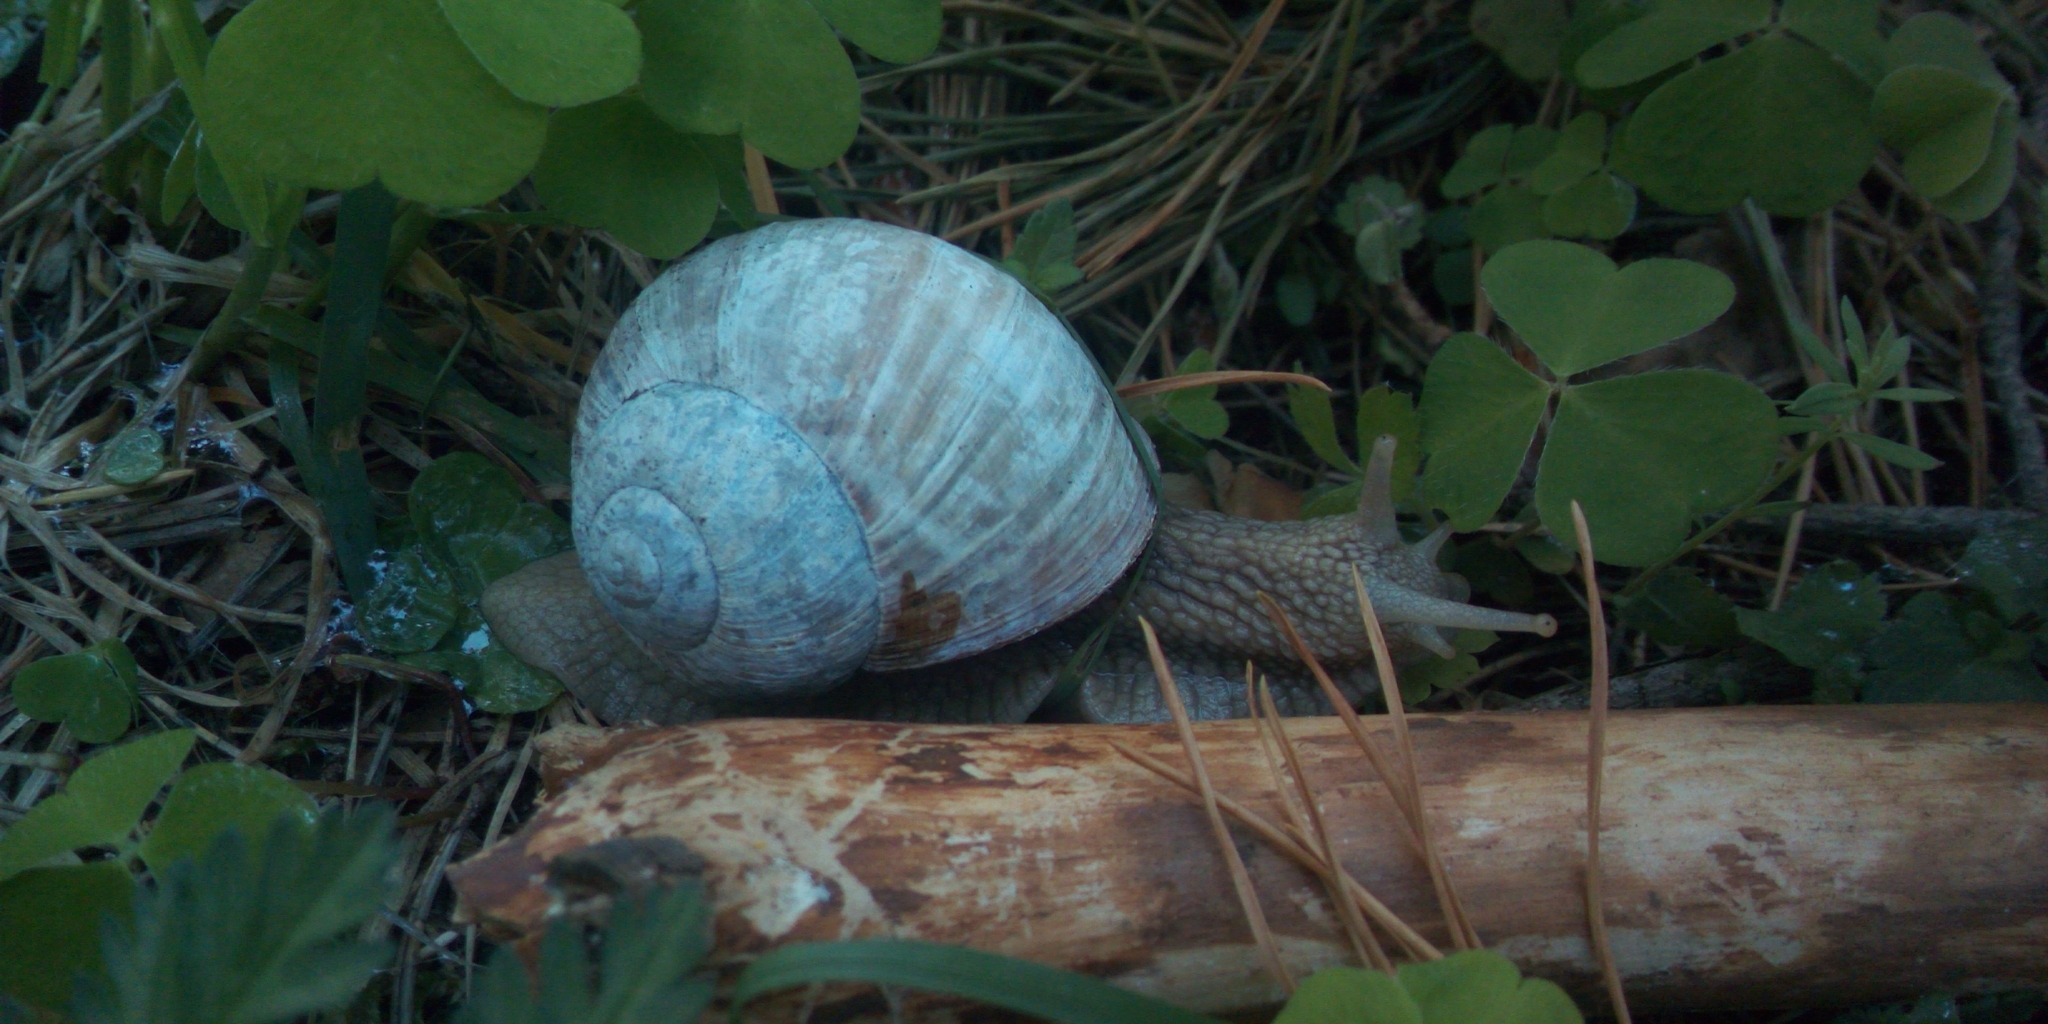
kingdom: Animalia
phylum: Mollusca
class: Gastropoda
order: Stylommatophora
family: Helicidae
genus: Helix
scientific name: Helix pomatia
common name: Roman snail
